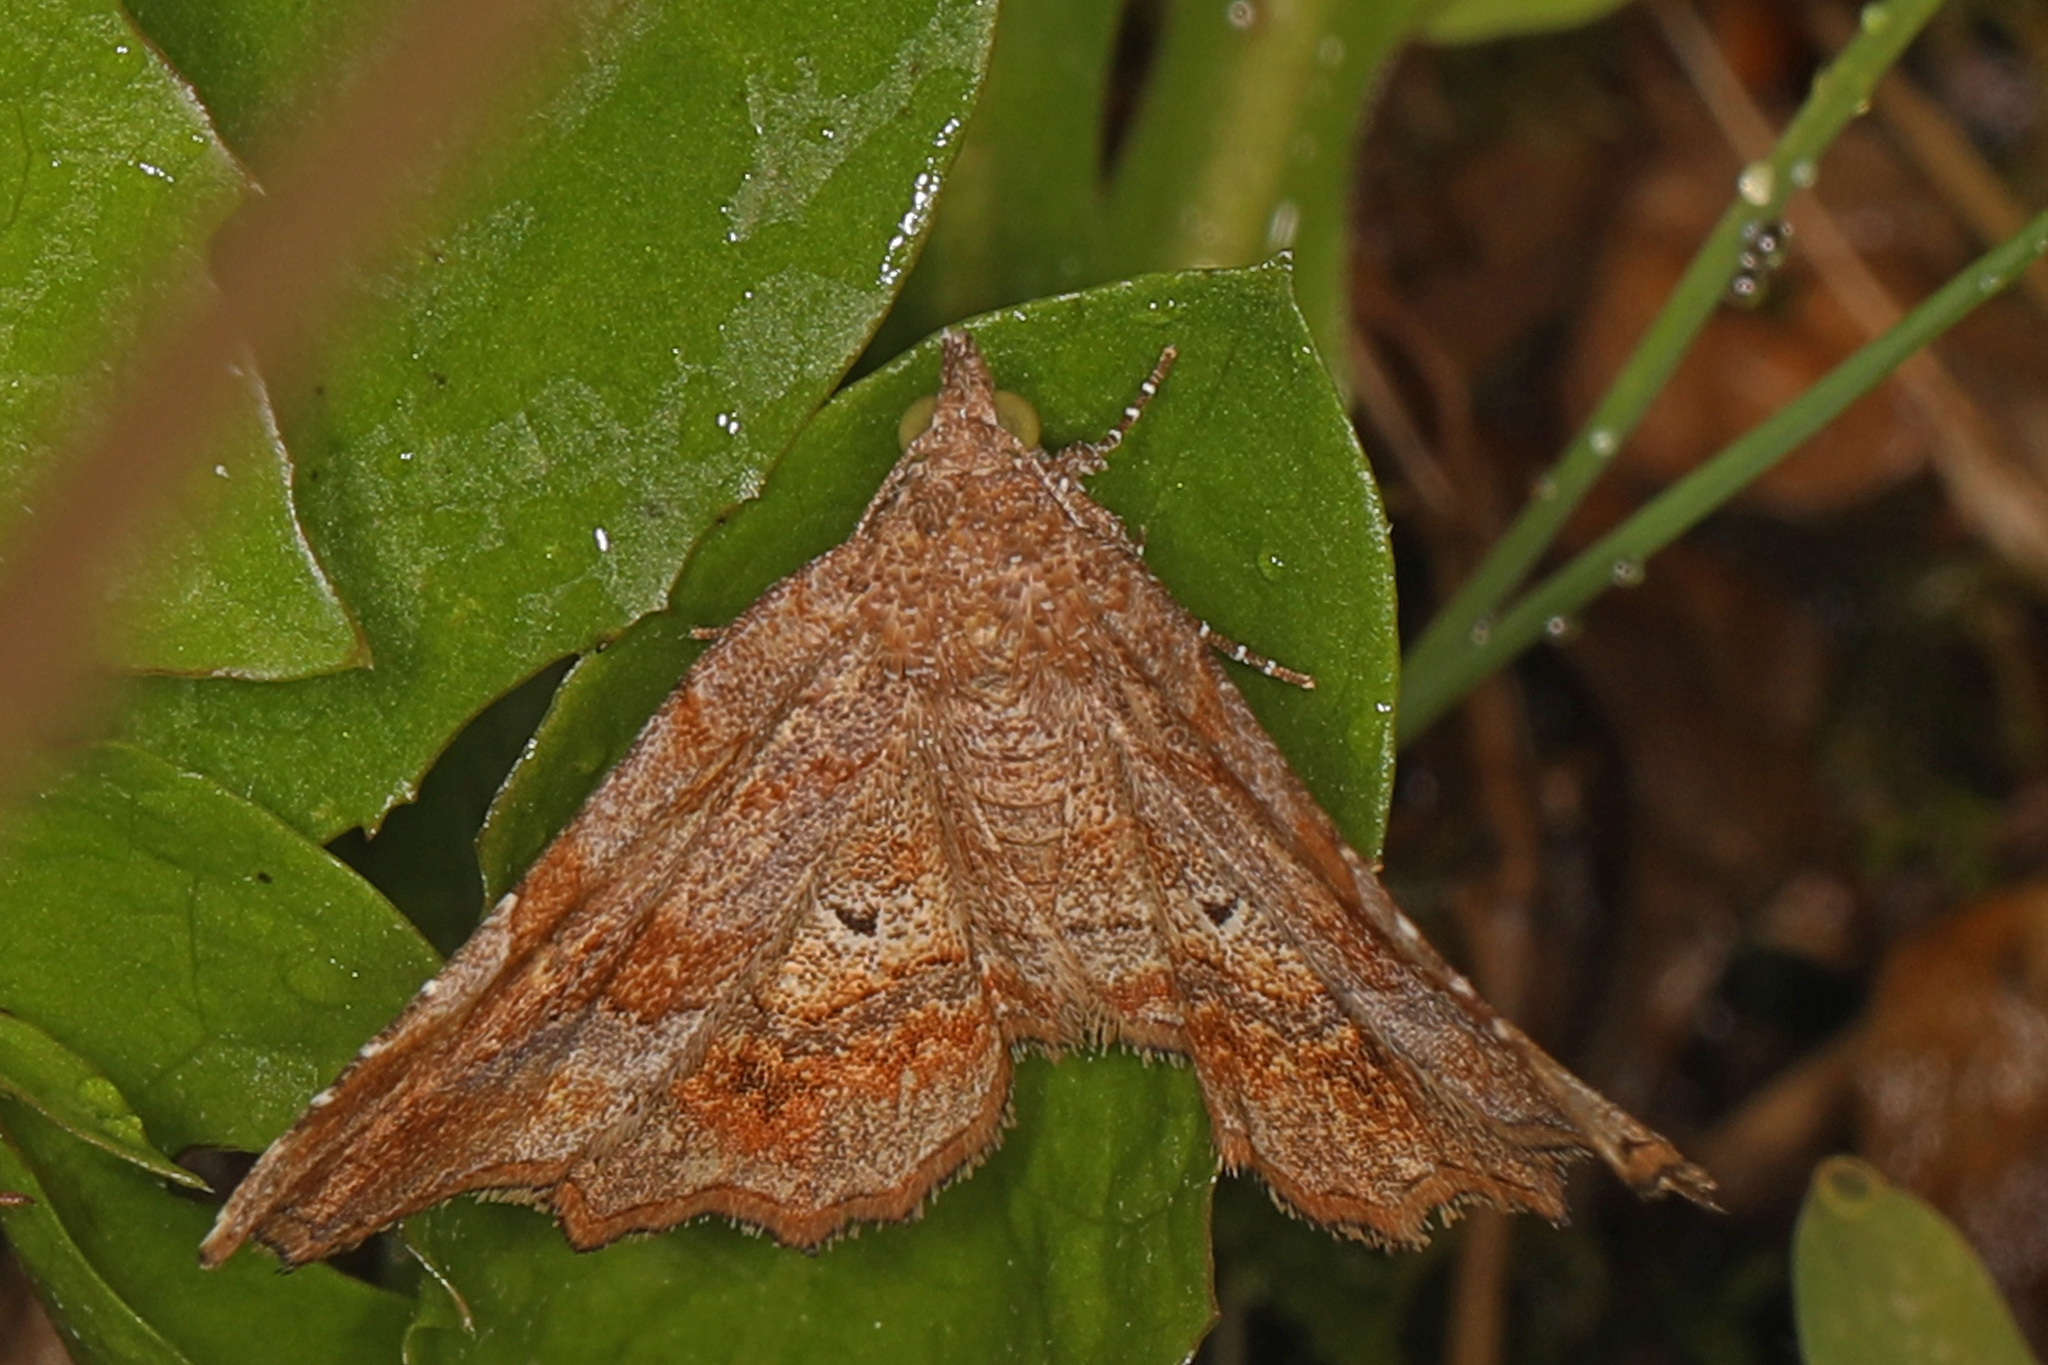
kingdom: Animalia
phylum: Arthropoda
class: Insecta
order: Lepidoptera
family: Erebidae
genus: Pangrapta
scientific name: Pangrapta decoralis
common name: Decorated owlet
